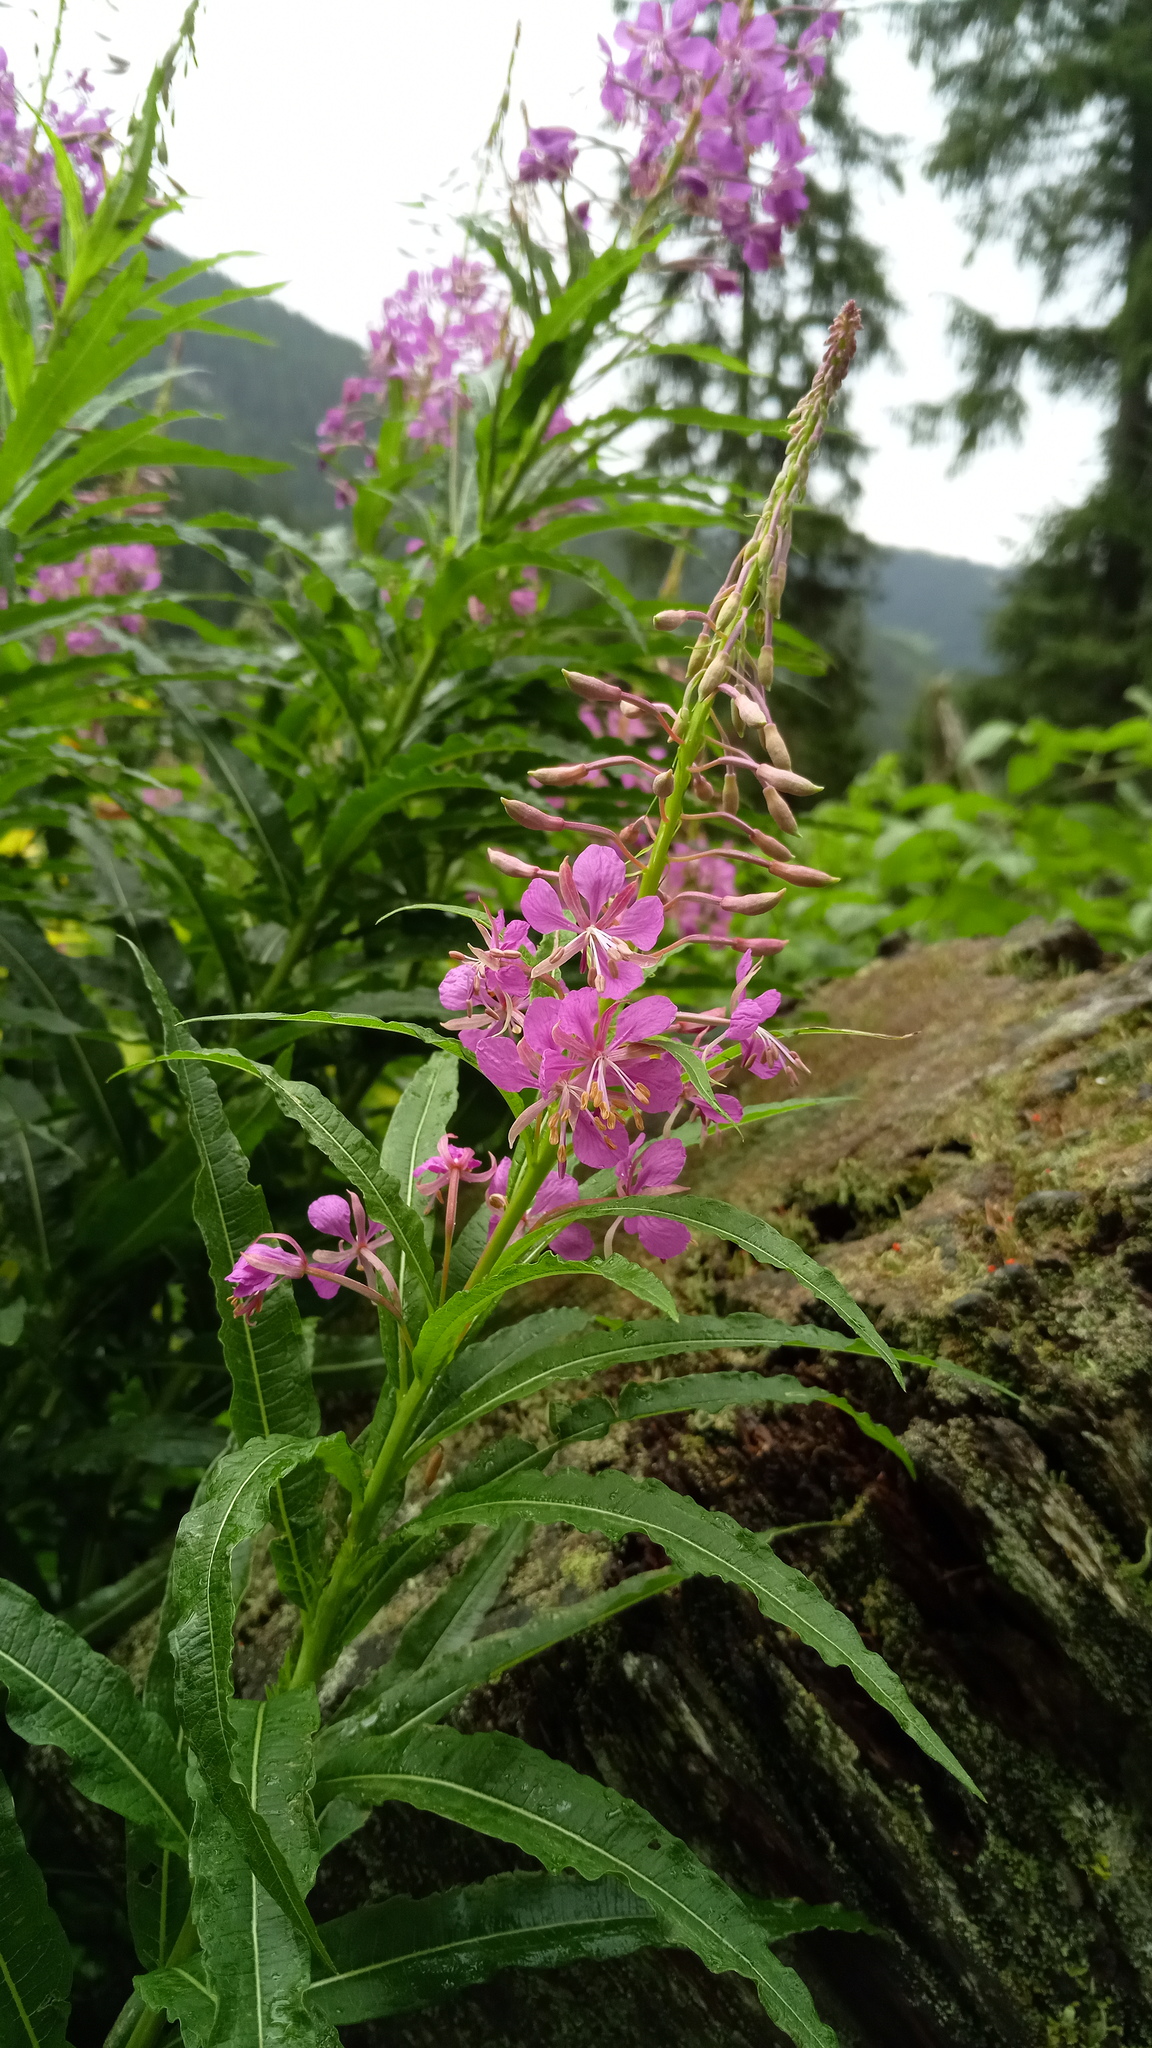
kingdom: Plantae
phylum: Tracheophyta
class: Magnoliopsida
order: Myrtales
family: Onagraceae
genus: Chamaenerion
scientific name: Chamaenerion angustifolium
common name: Fireweed
